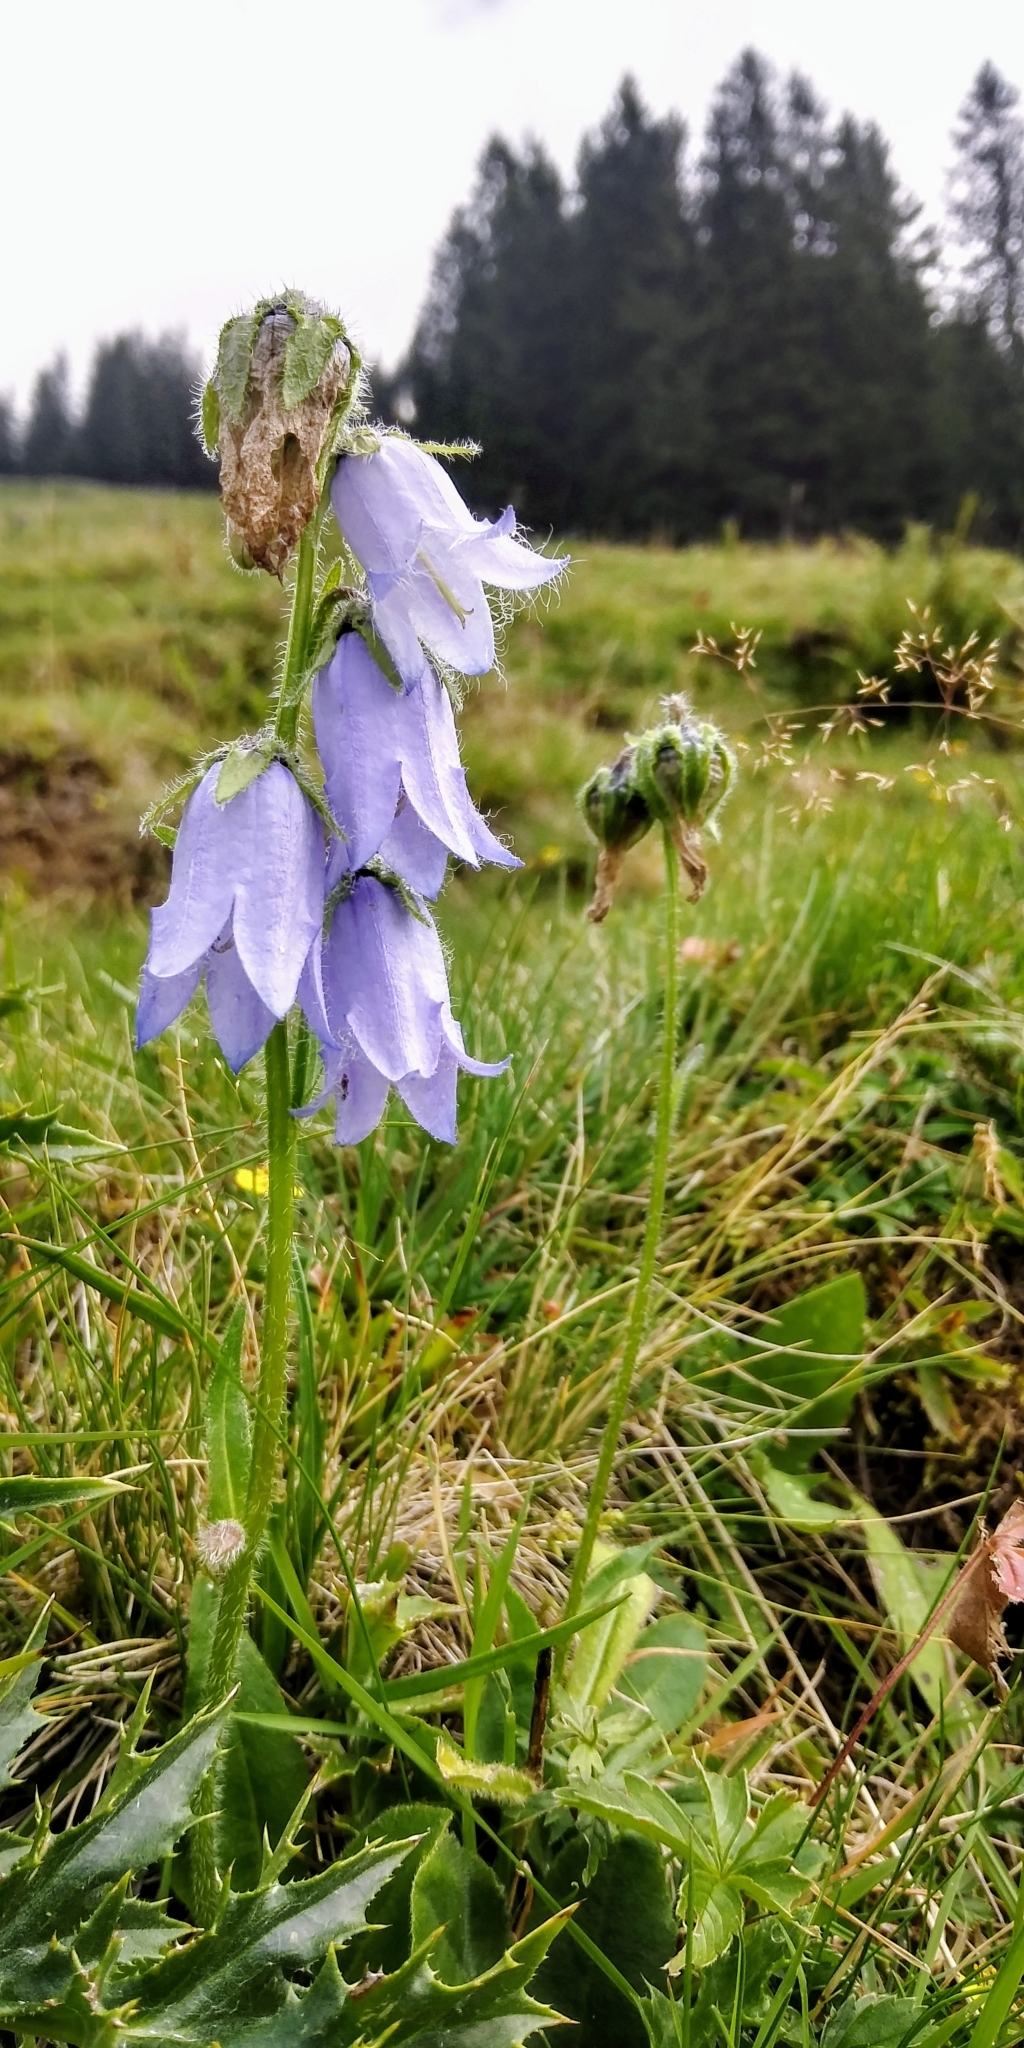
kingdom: Plantae
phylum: Tracheophyta
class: Magnoliopsida
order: Asterales
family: Campanulaceae
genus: Campanula
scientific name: Campanula barbata
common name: Bearded bellflower
